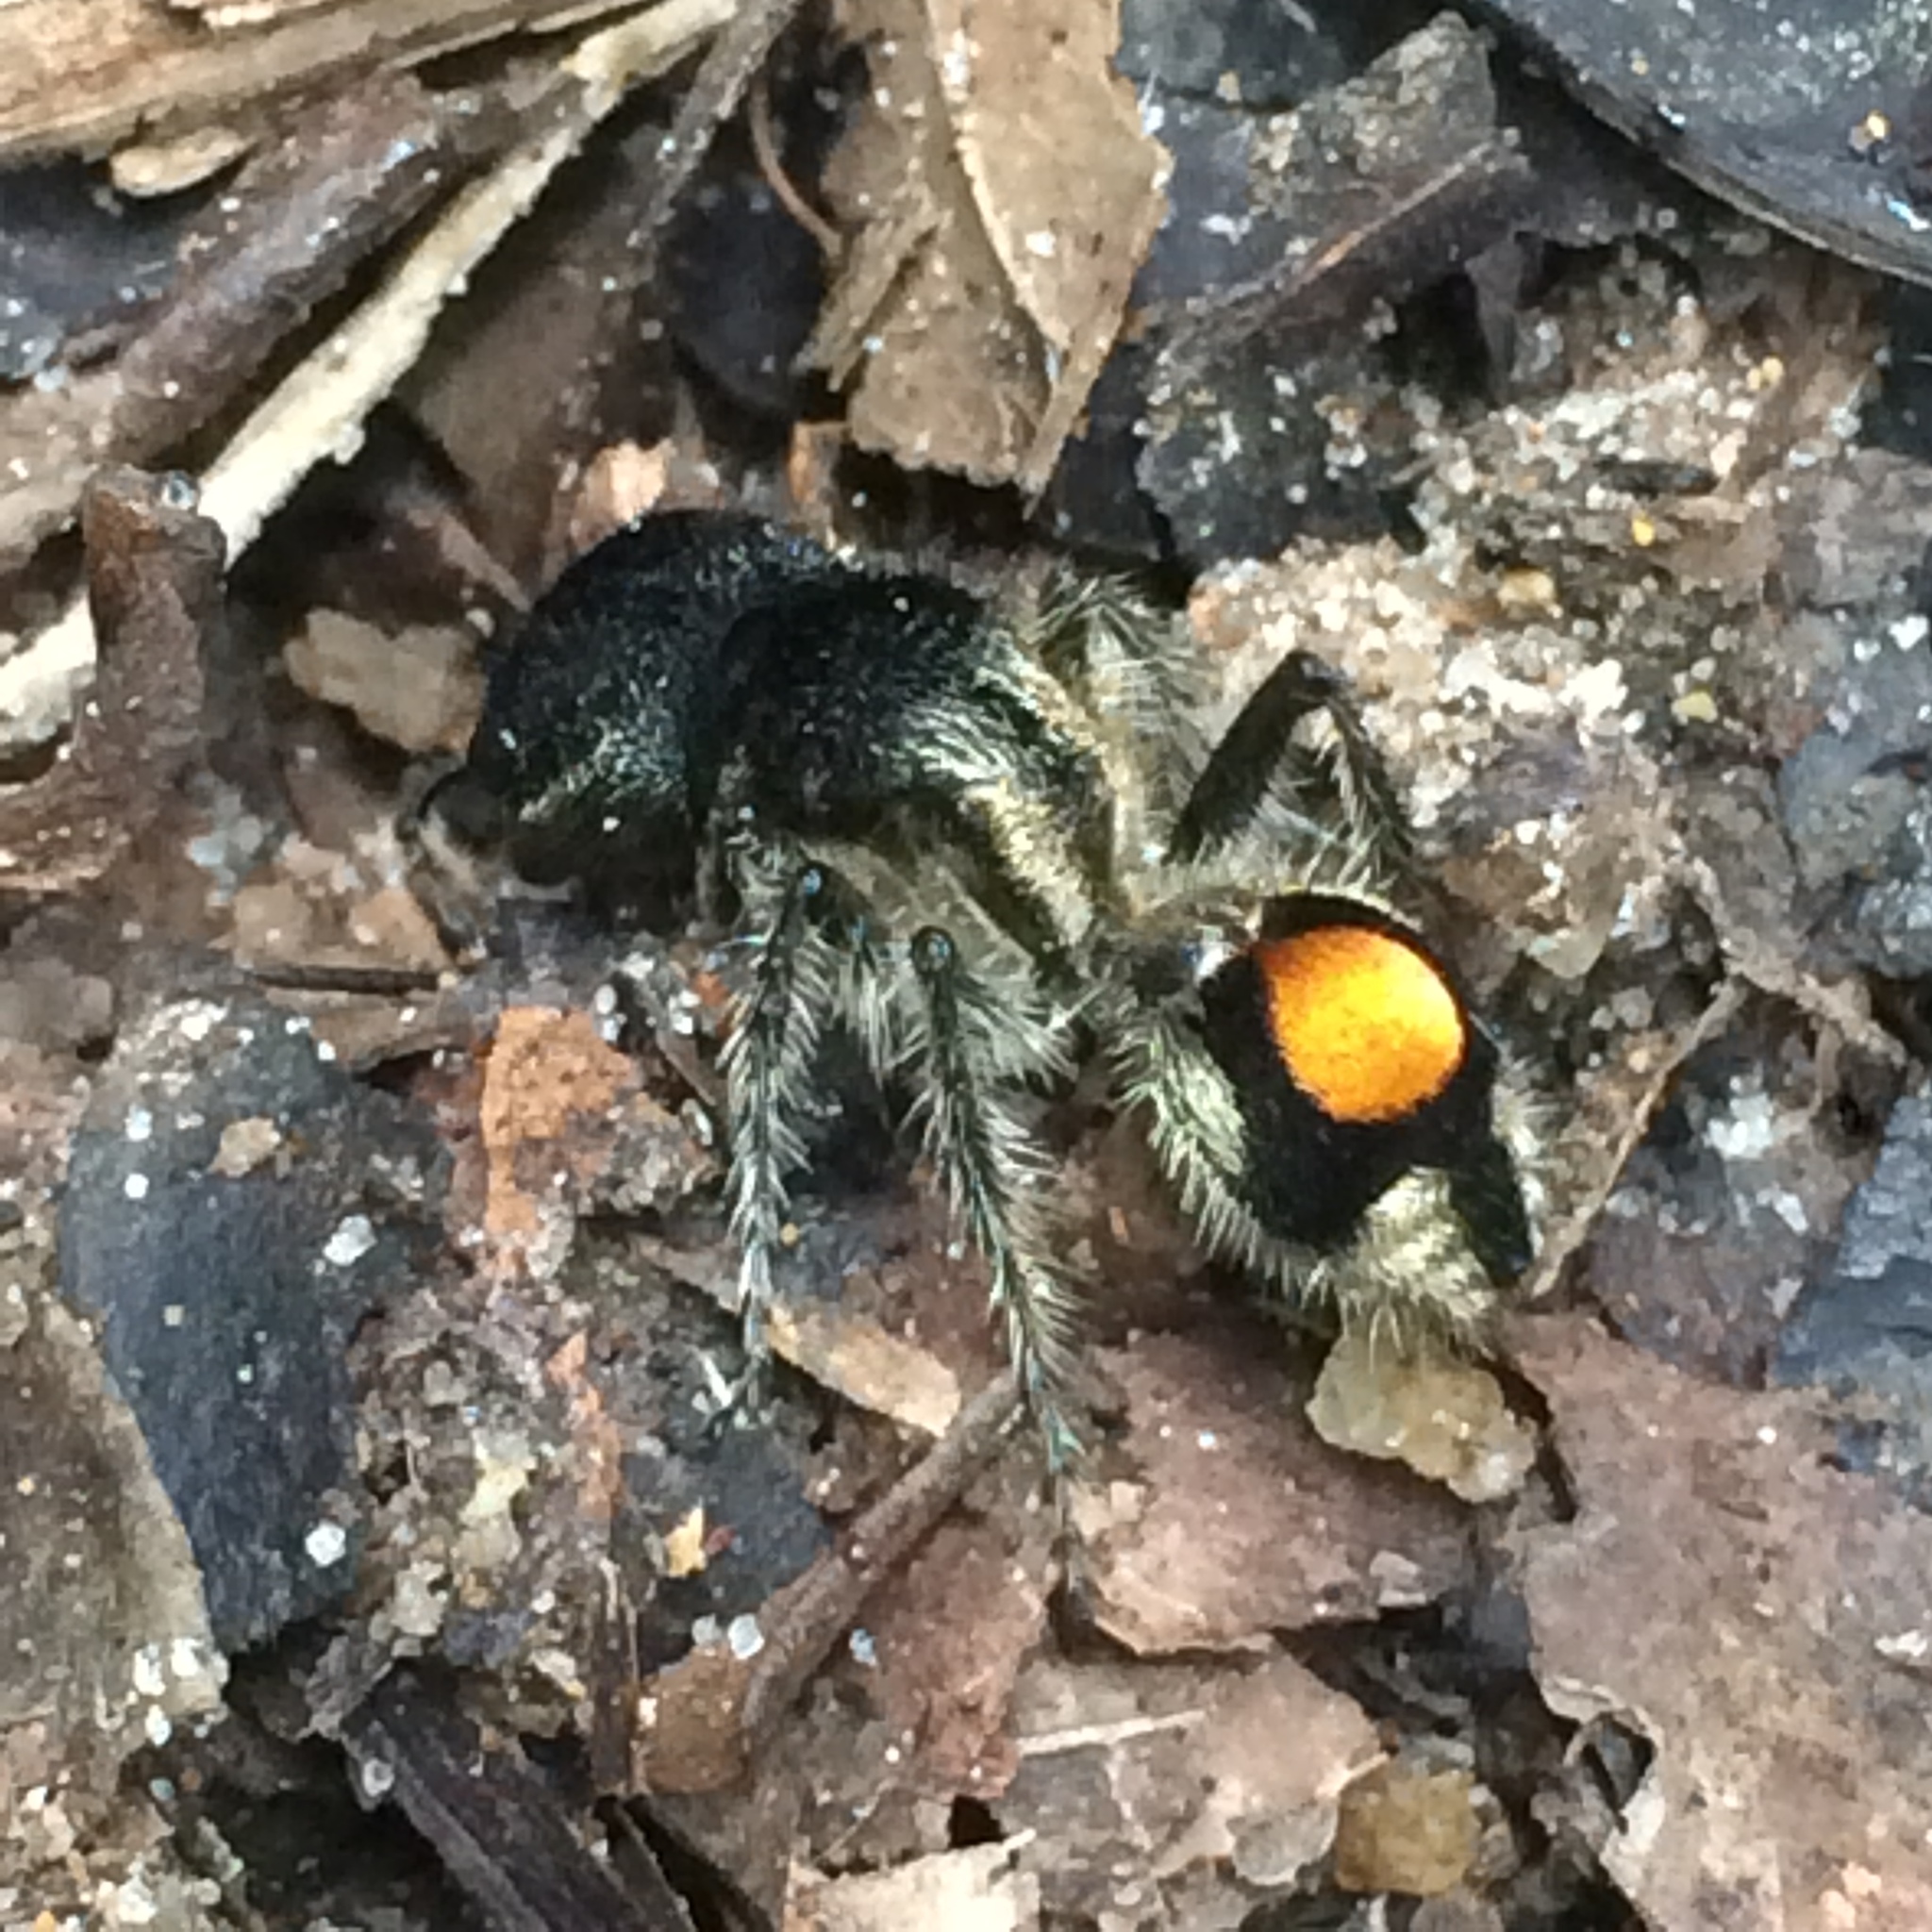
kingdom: Animalia
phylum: Arthropoda
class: Insecta
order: Hymenoptera
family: Mutillidae
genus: Hoplocrates
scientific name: Hoplocrates
